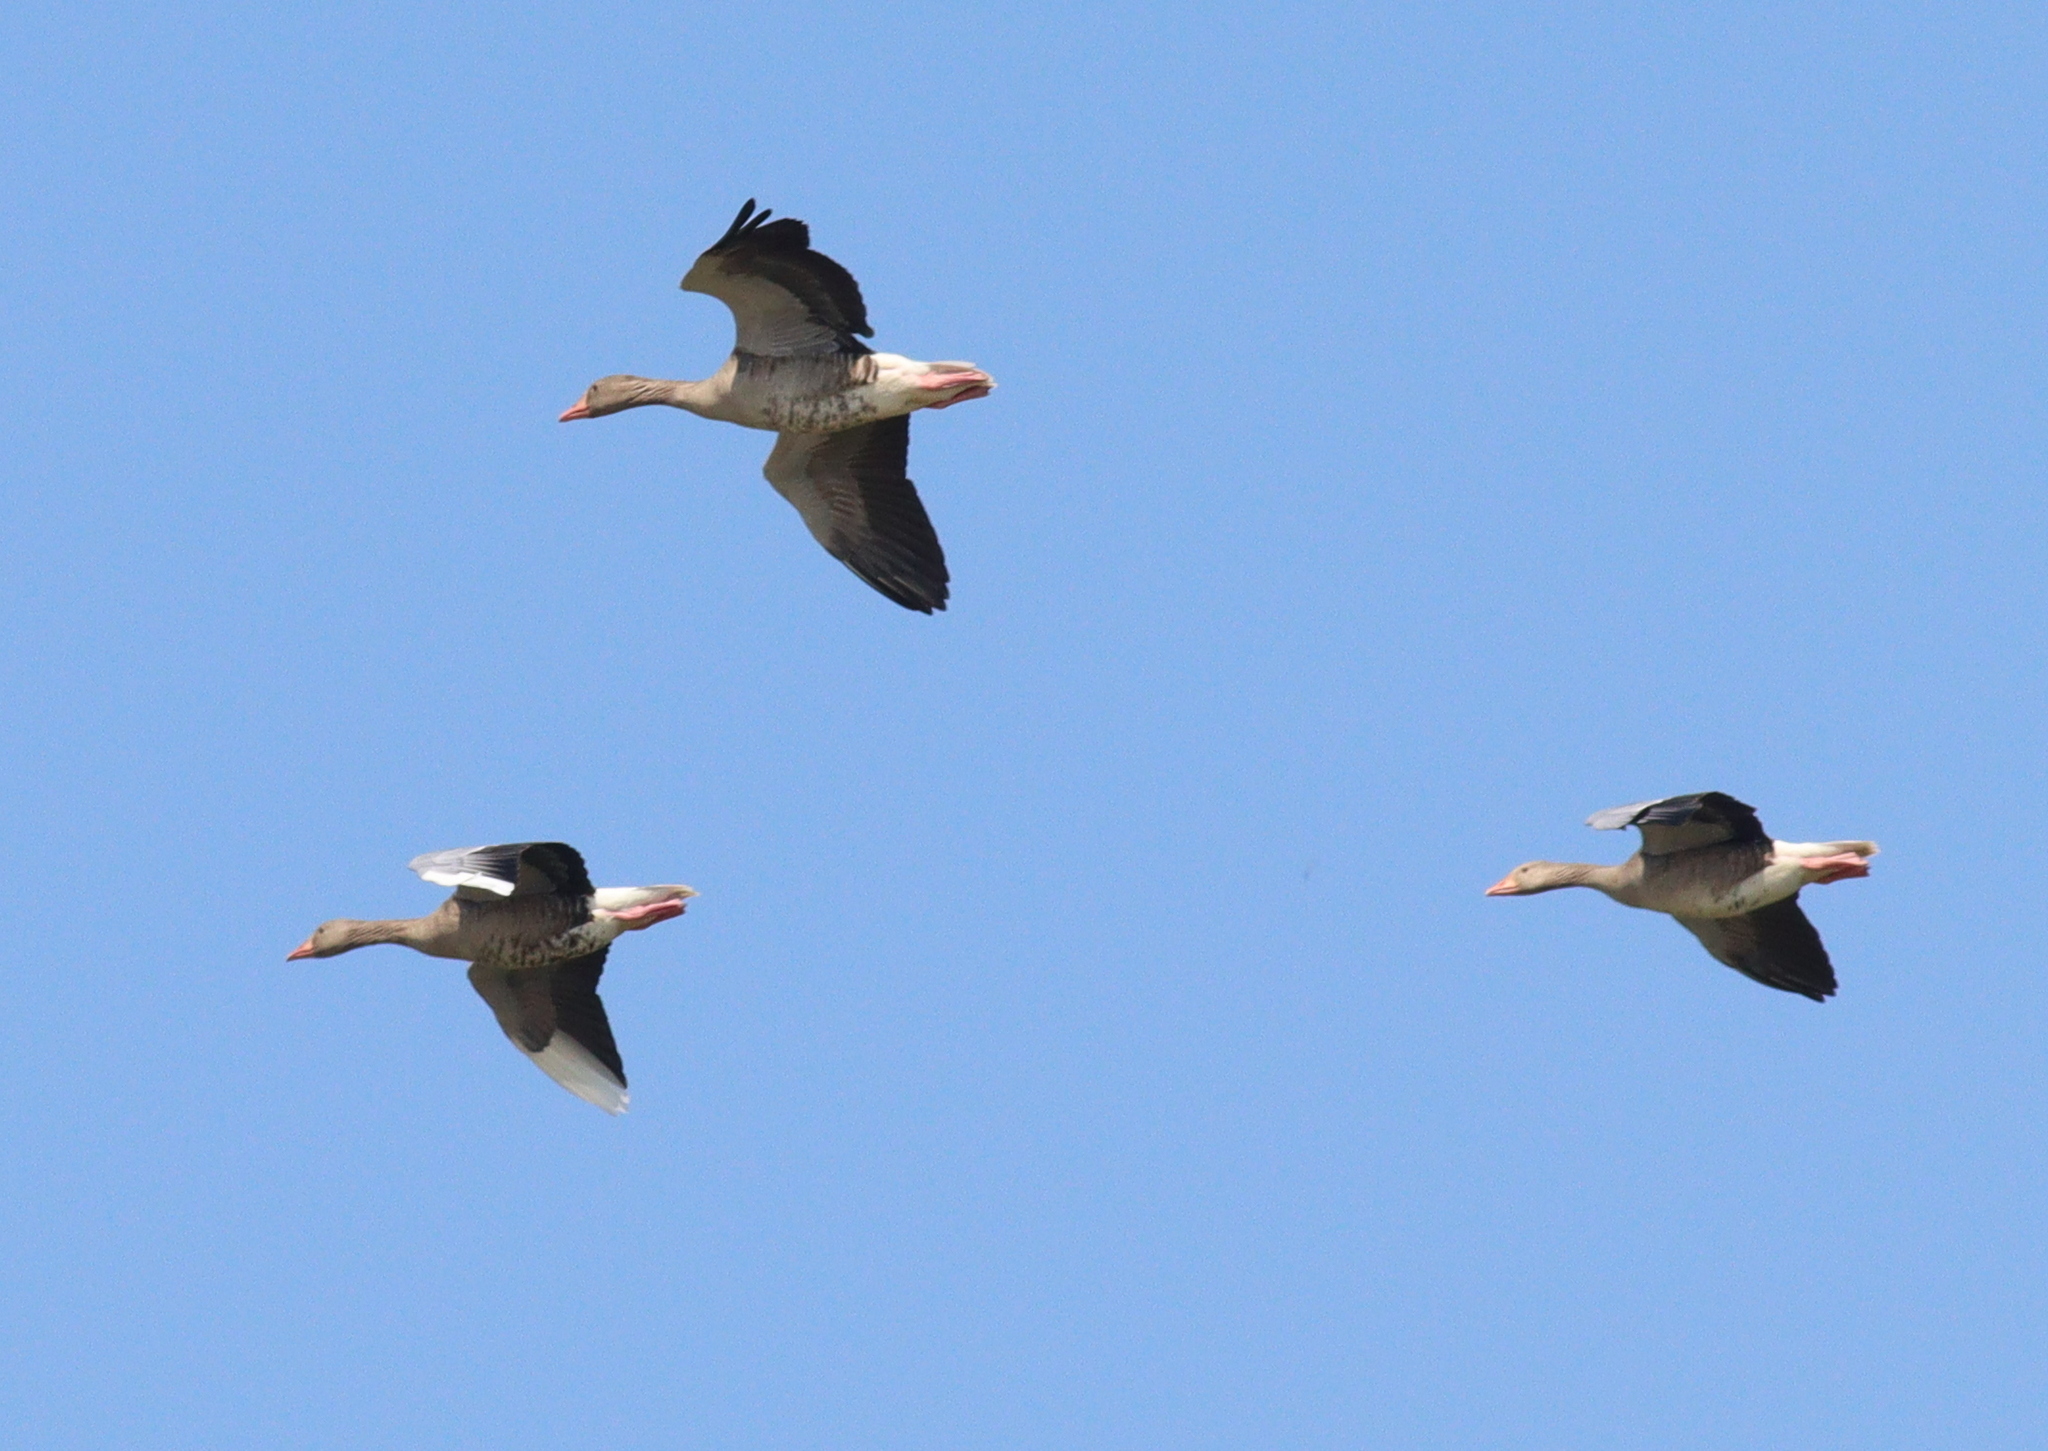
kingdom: Animalia
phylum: Chordata
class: Aves
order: Anseriformes
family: Anatidae
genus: Anser
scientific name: Anser anser
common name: Greylag goose
